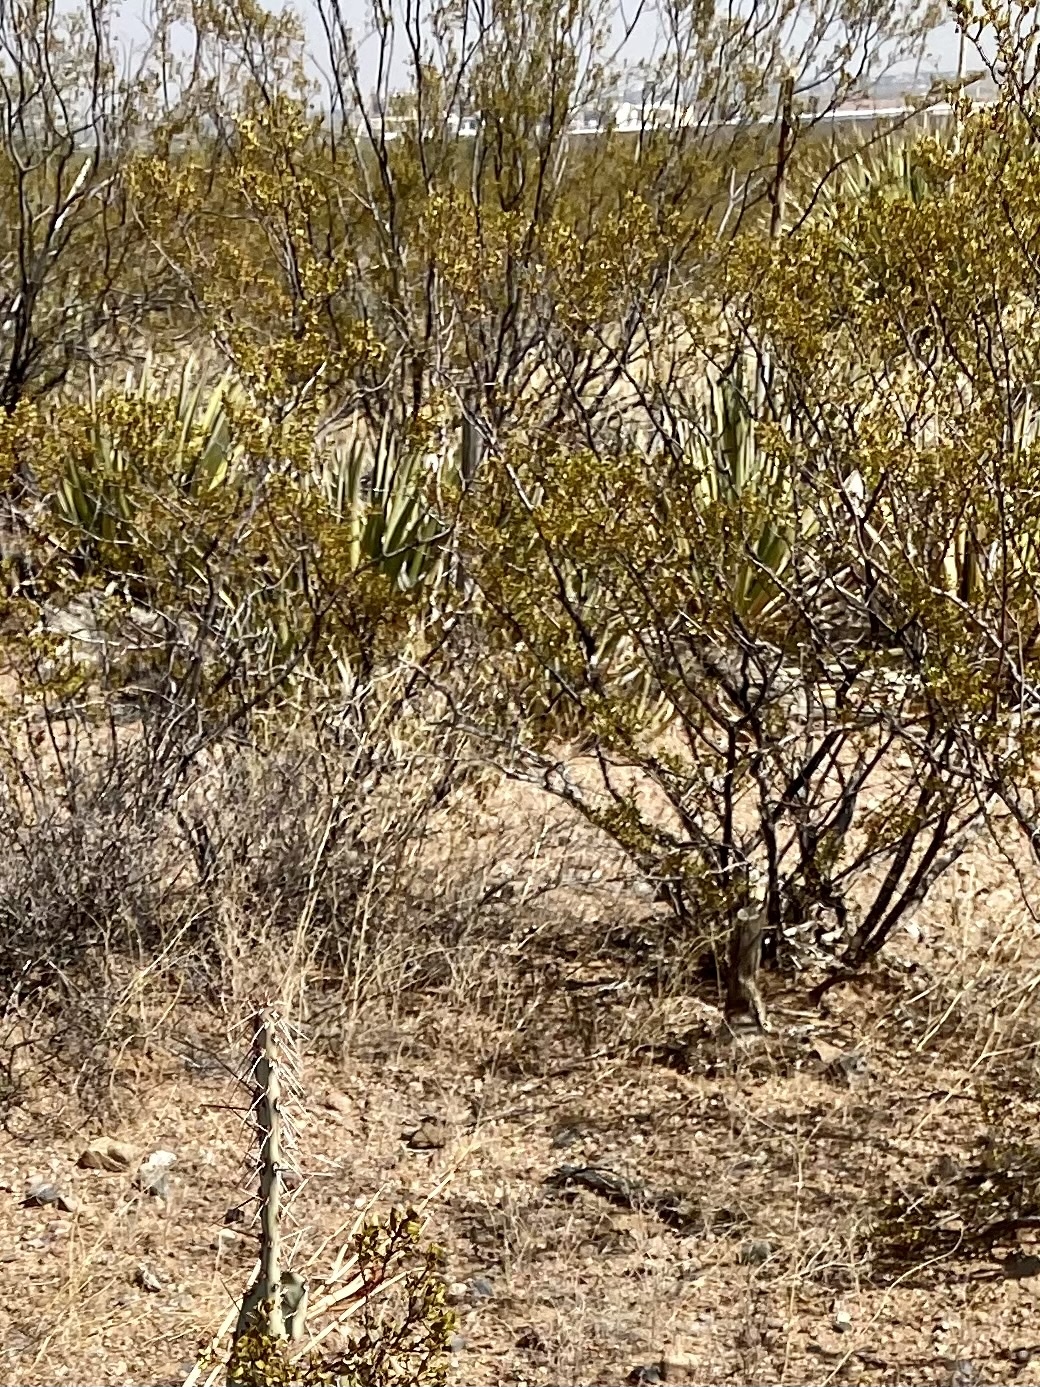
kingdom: Plantae
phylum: Tracheophyta
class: Magnoliopsida
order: Zygophyllales
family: Zygophyllaceae
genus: Larrea
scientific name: Larrea tridentata
